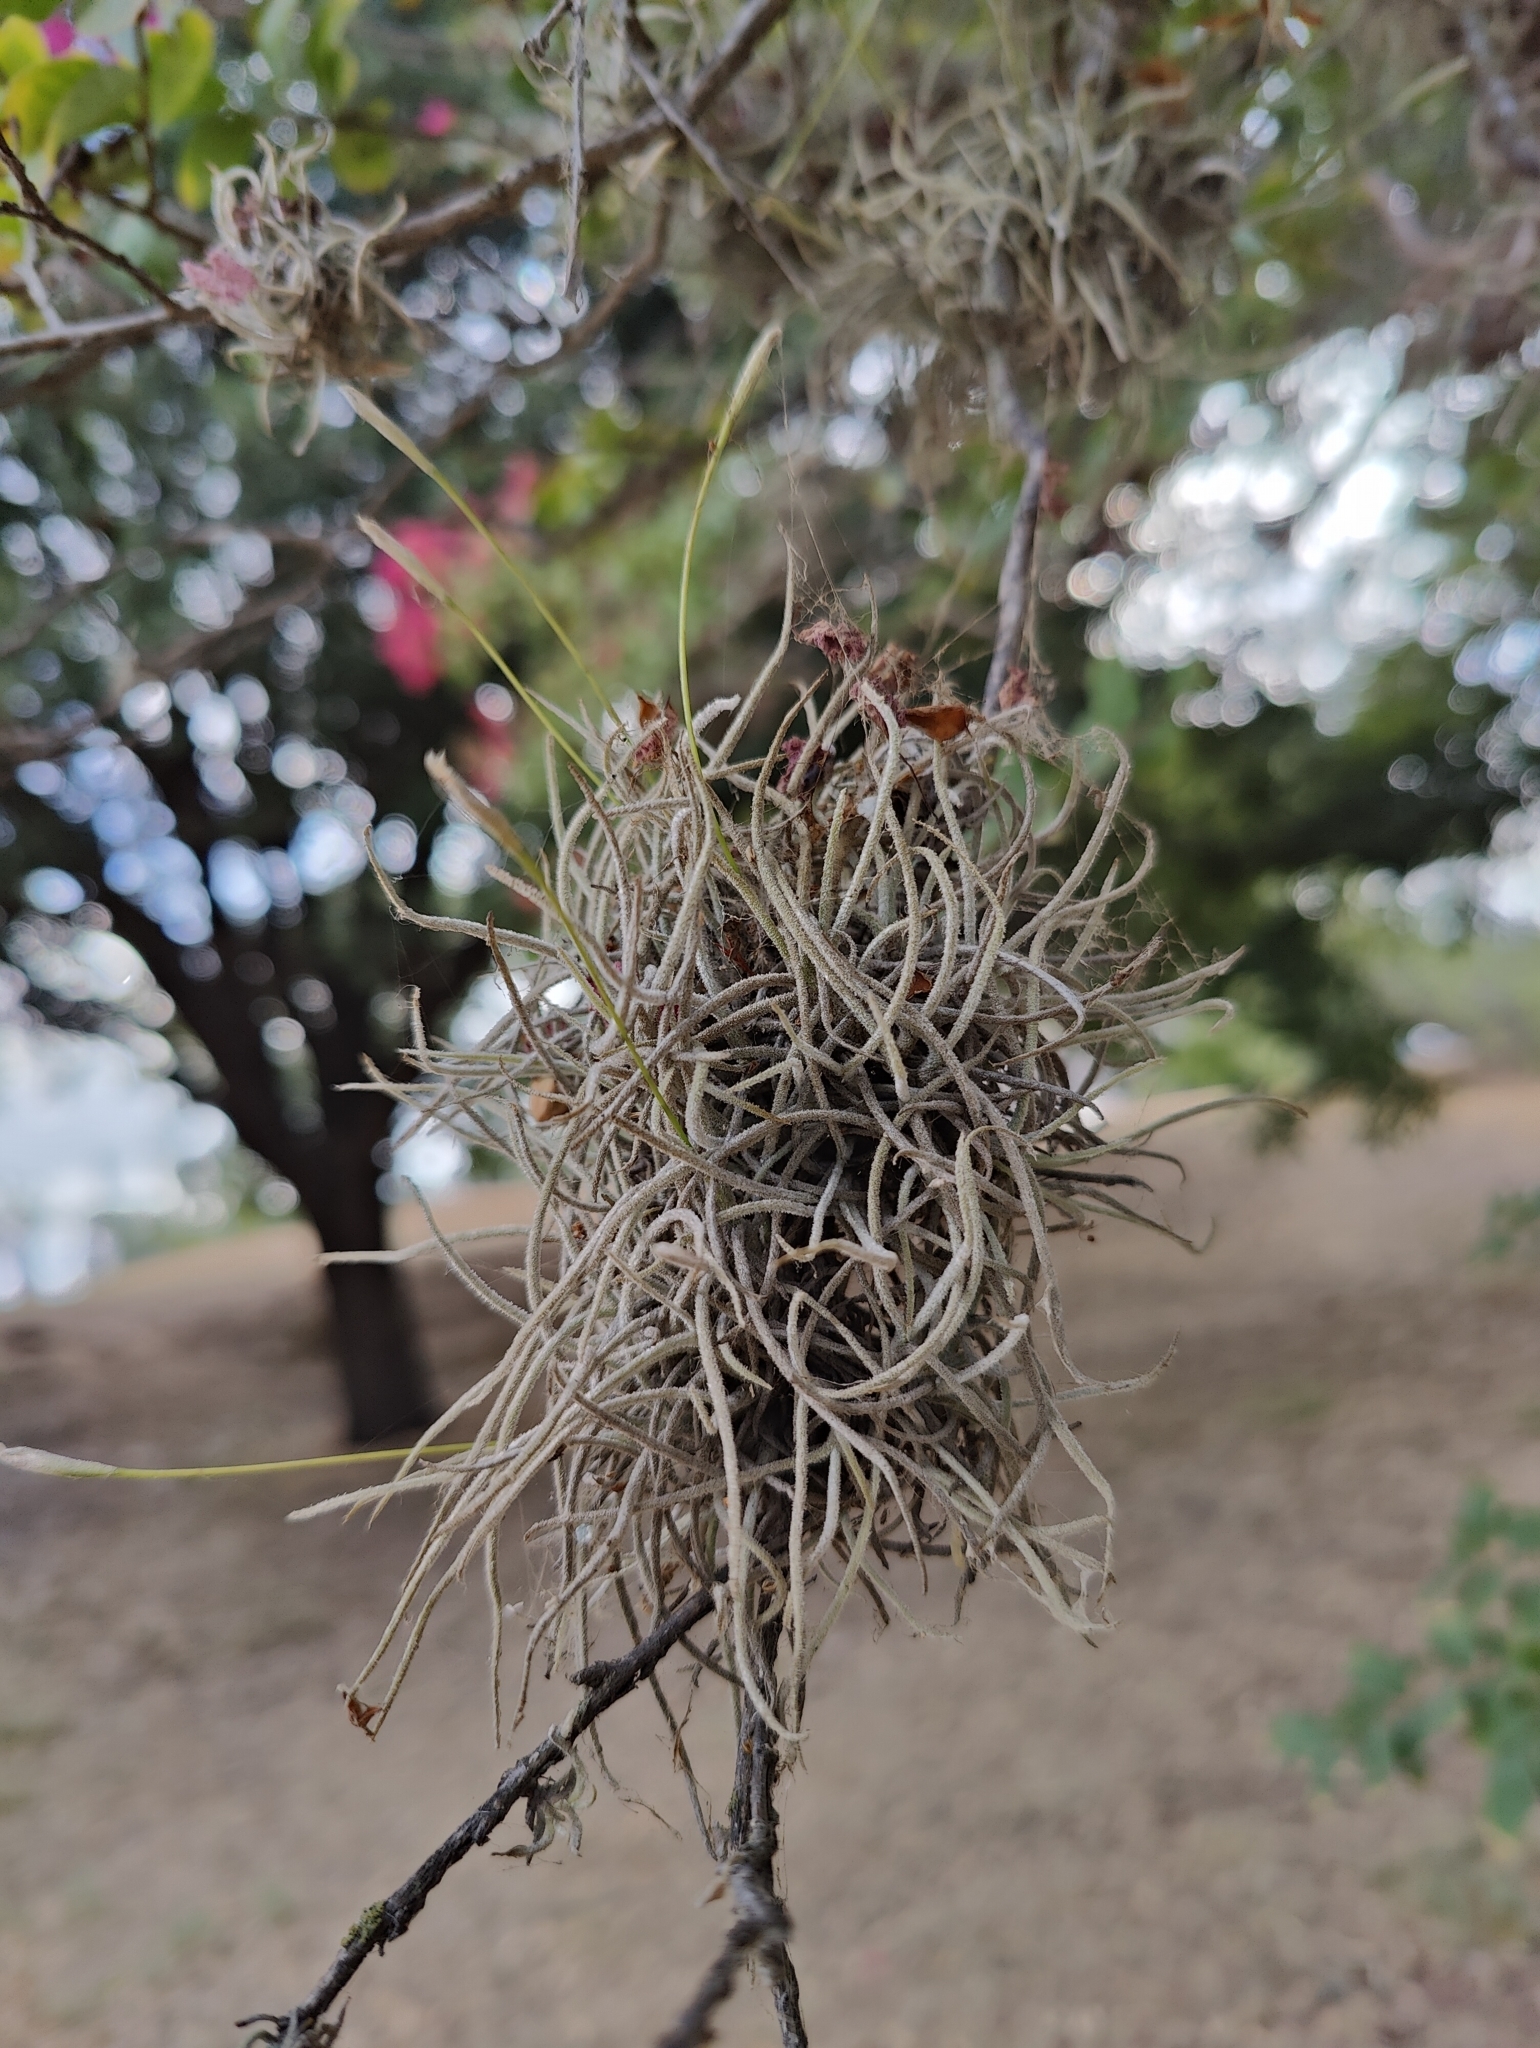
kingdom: Plantae
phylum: Tracheophyta
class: Liliopsida
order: Poales
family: Bromeliaceae
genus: Tillandsia
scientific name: Tillandsia recurvata
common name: Small ballmoss
